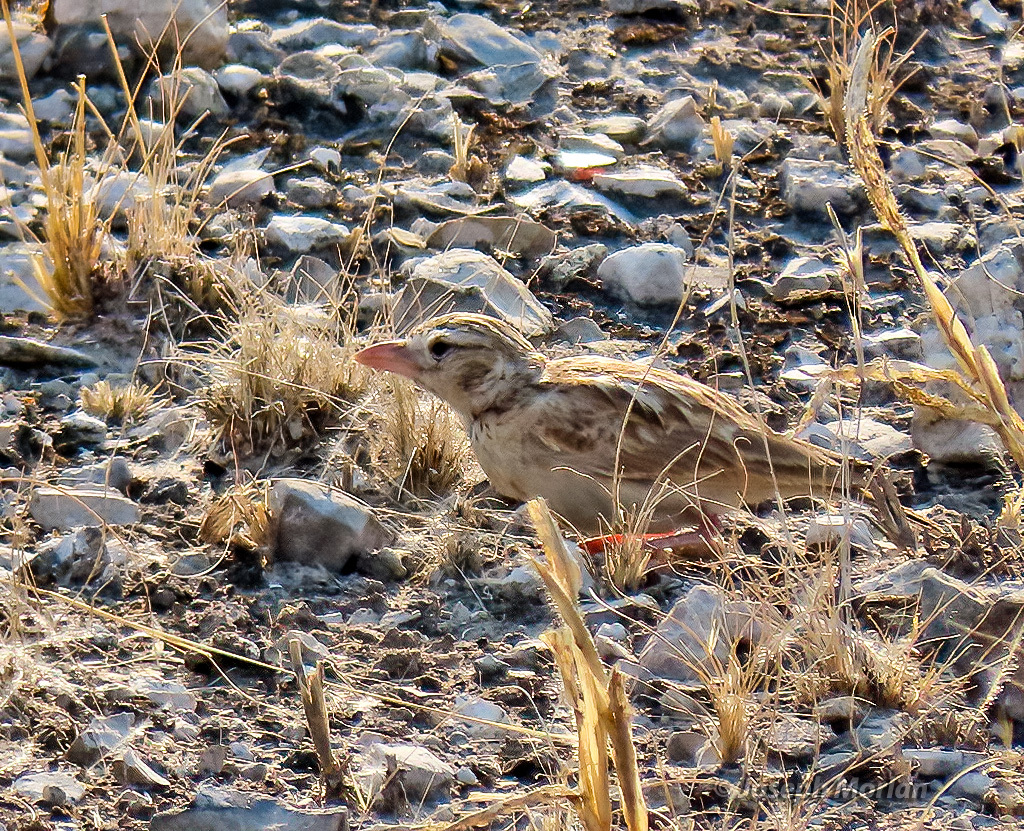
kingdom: Animalia
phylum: Chordata
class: Aves
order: Passeriformes
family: Alaudidae
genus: Spizocorys
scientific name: Spizocorys starki
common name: Stark's lark
